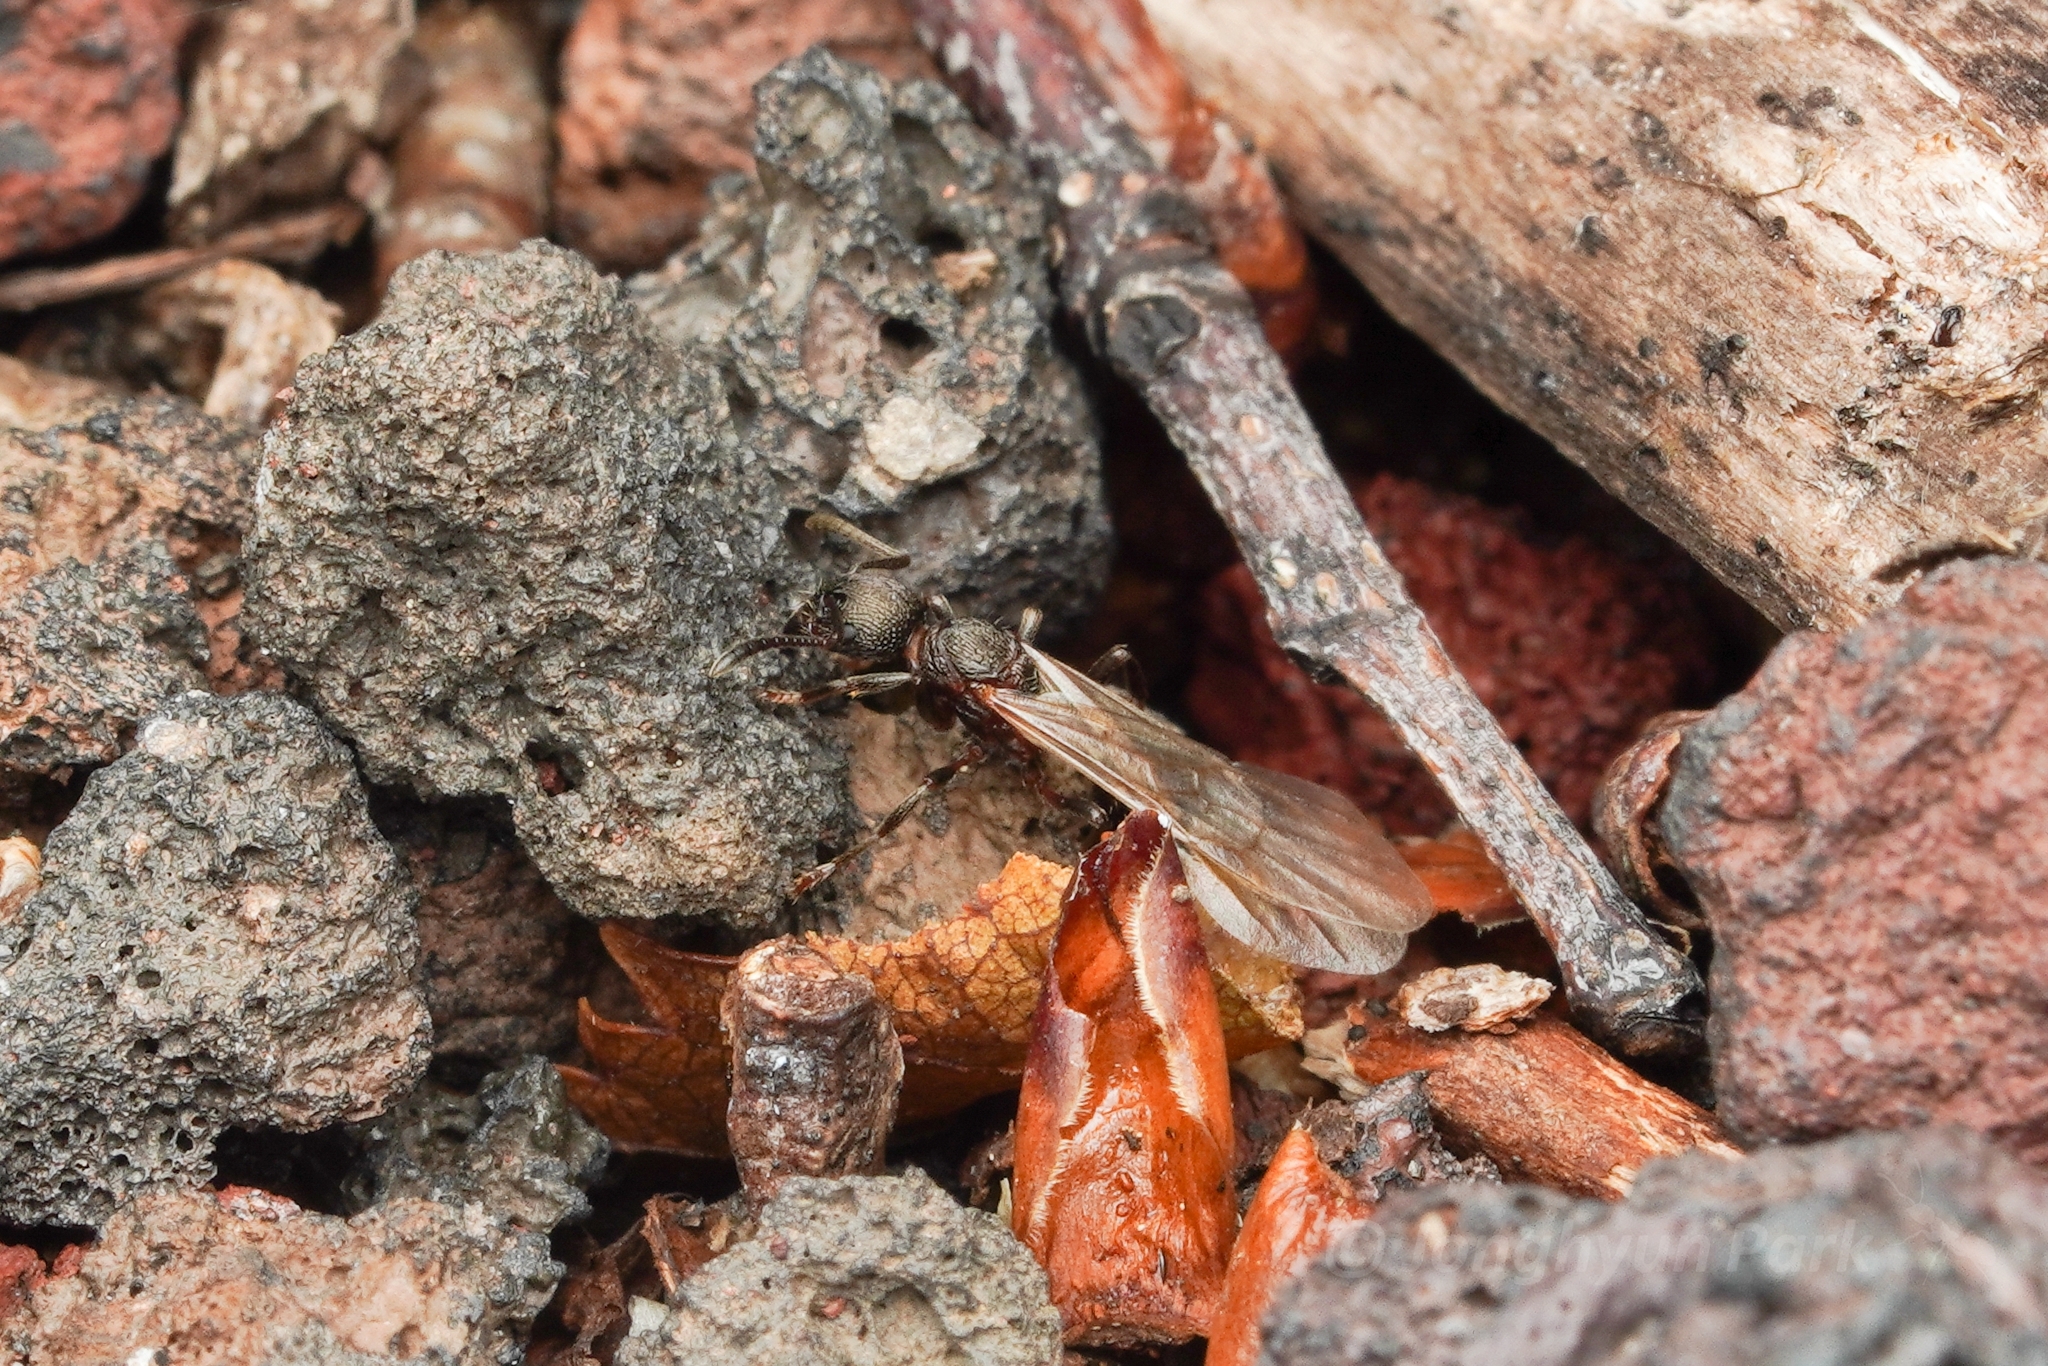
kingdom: Animalia
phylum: Arthropoda
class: Insecta
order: Hymenoptera
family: Formicidae
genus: Myrmica
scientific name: Myrmica kurokii
